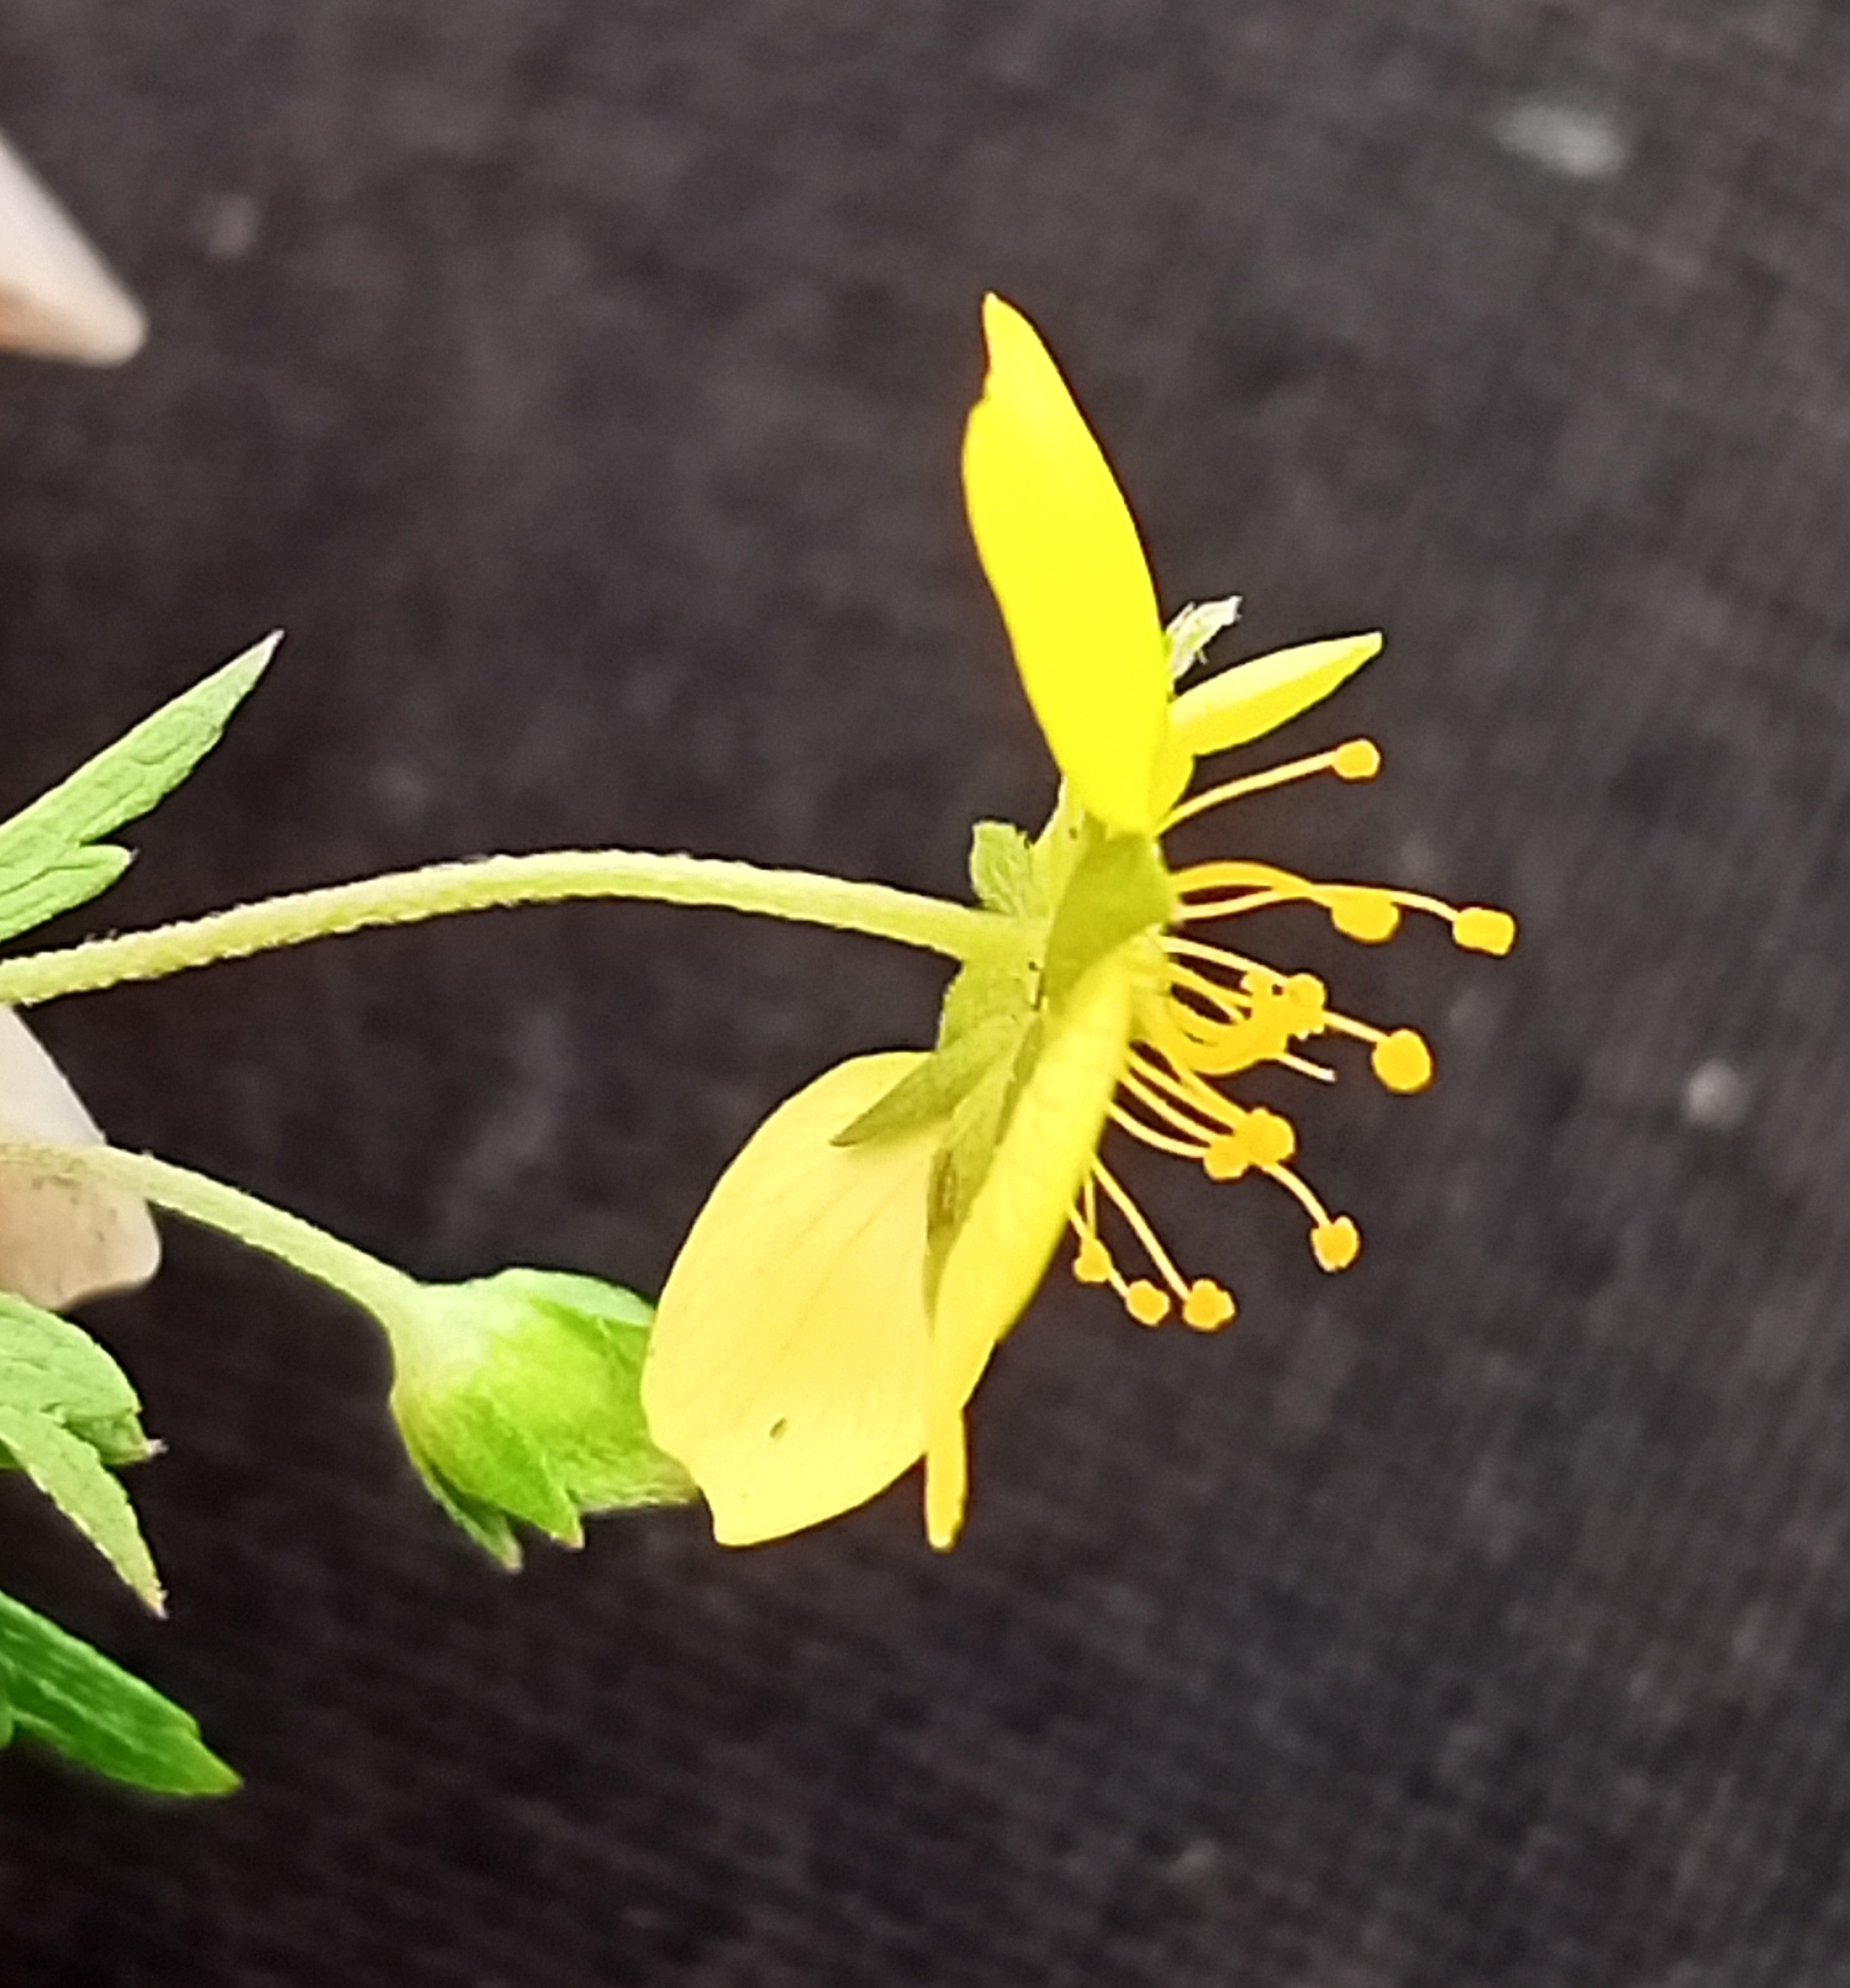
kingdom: Plantae
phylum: Tracheophyta
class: Magnoliopsida
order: Rosales
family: Rosaceae
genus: Potentilla
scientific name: Potentilla erecta
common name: Tormentil
